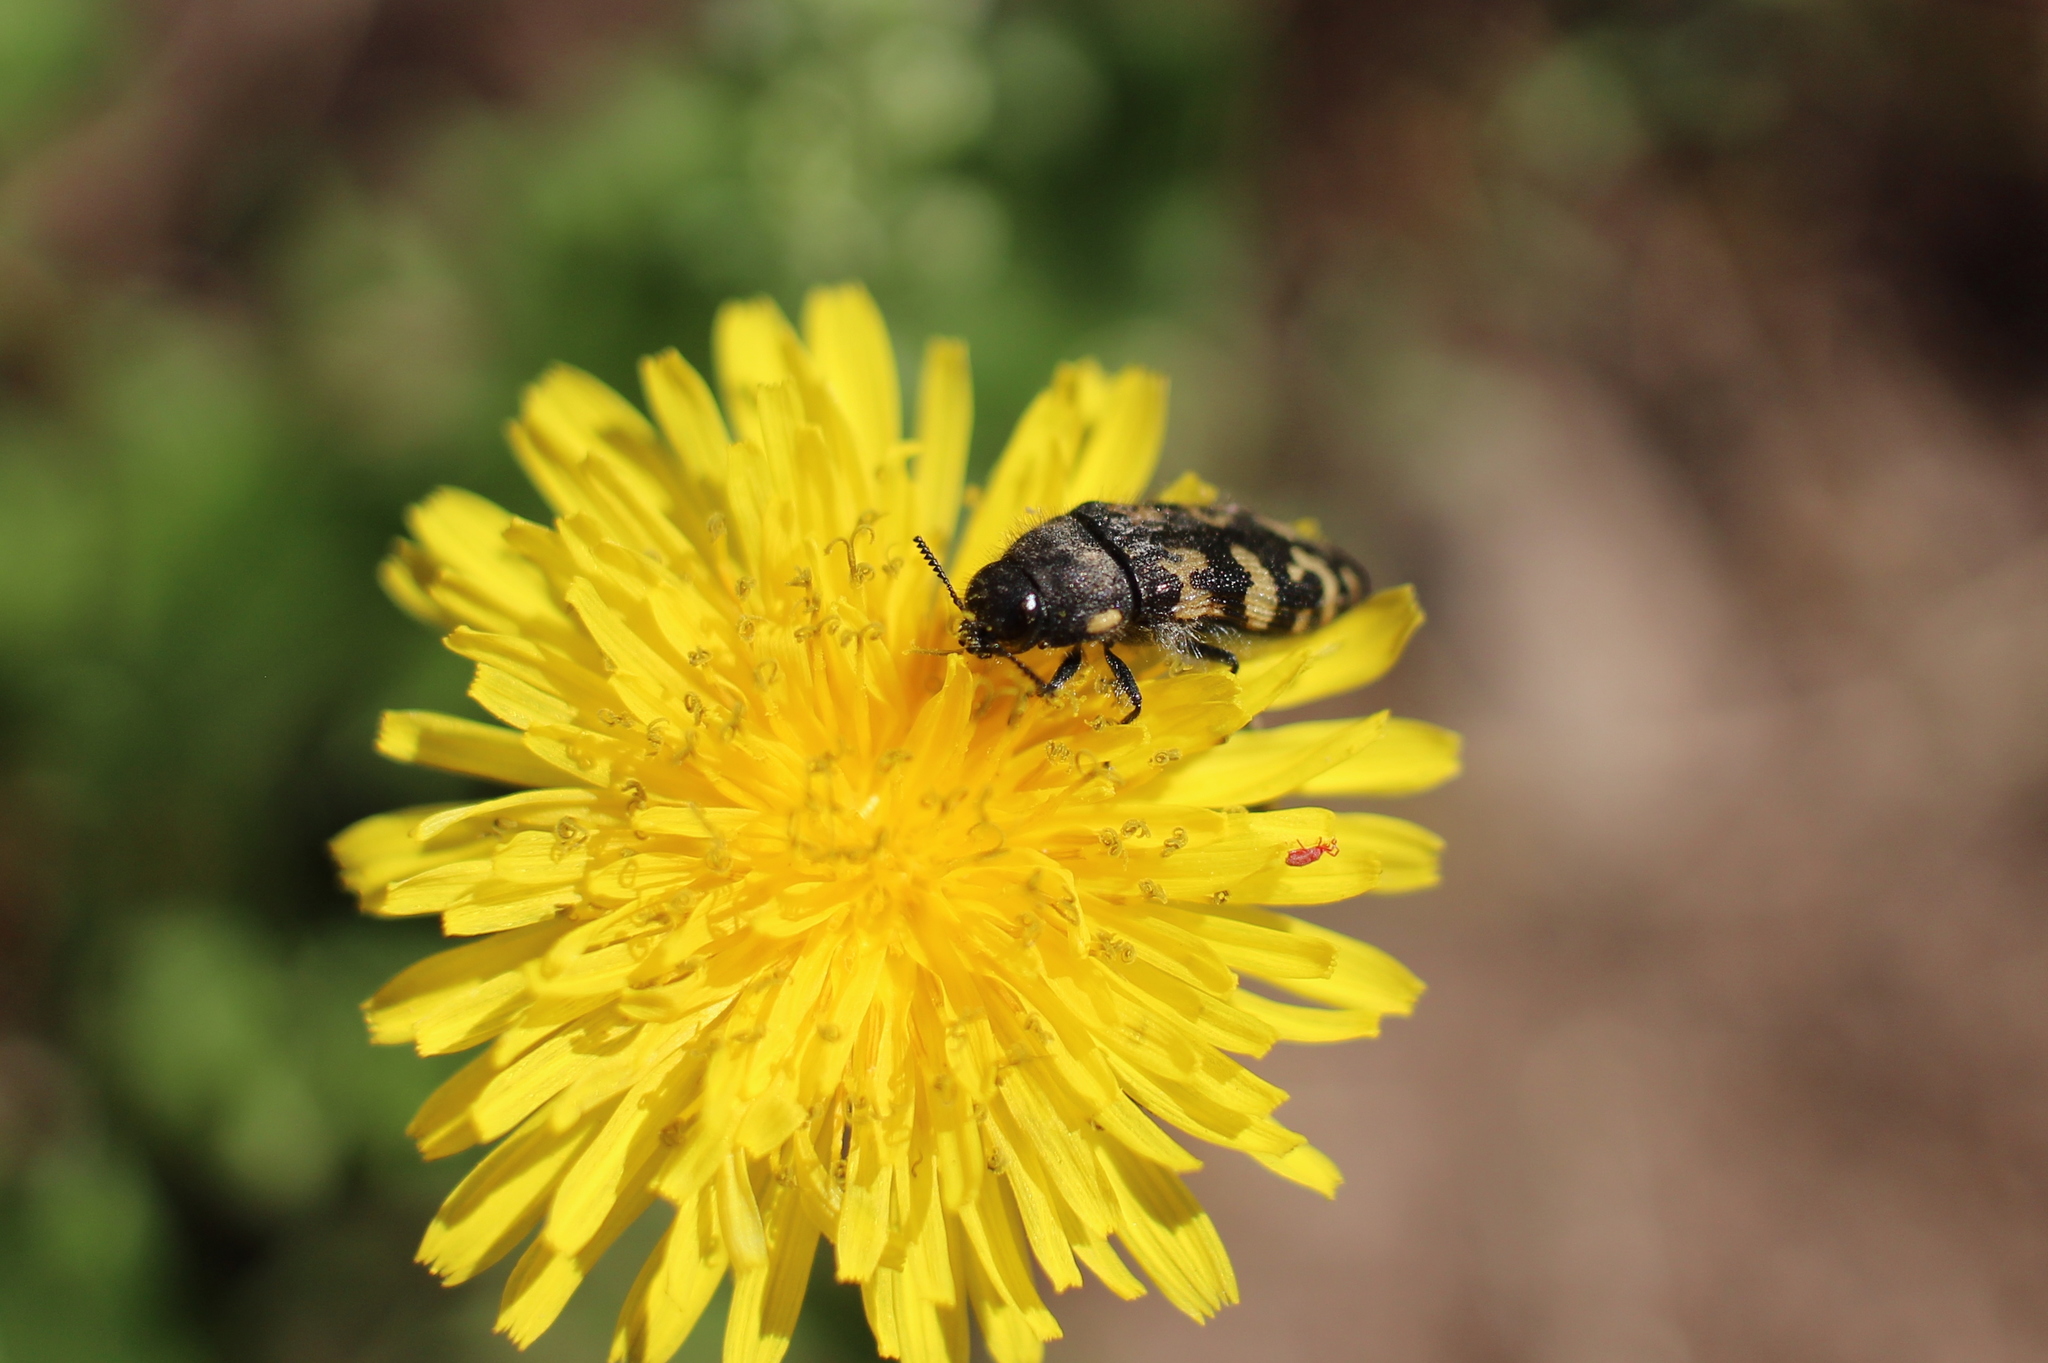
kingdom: Animalia
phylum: Arthropoda
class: Insecta
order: Coleoptera
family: Buprestidae
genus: Acmaeodera
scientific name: Acmaeodera diffusa
